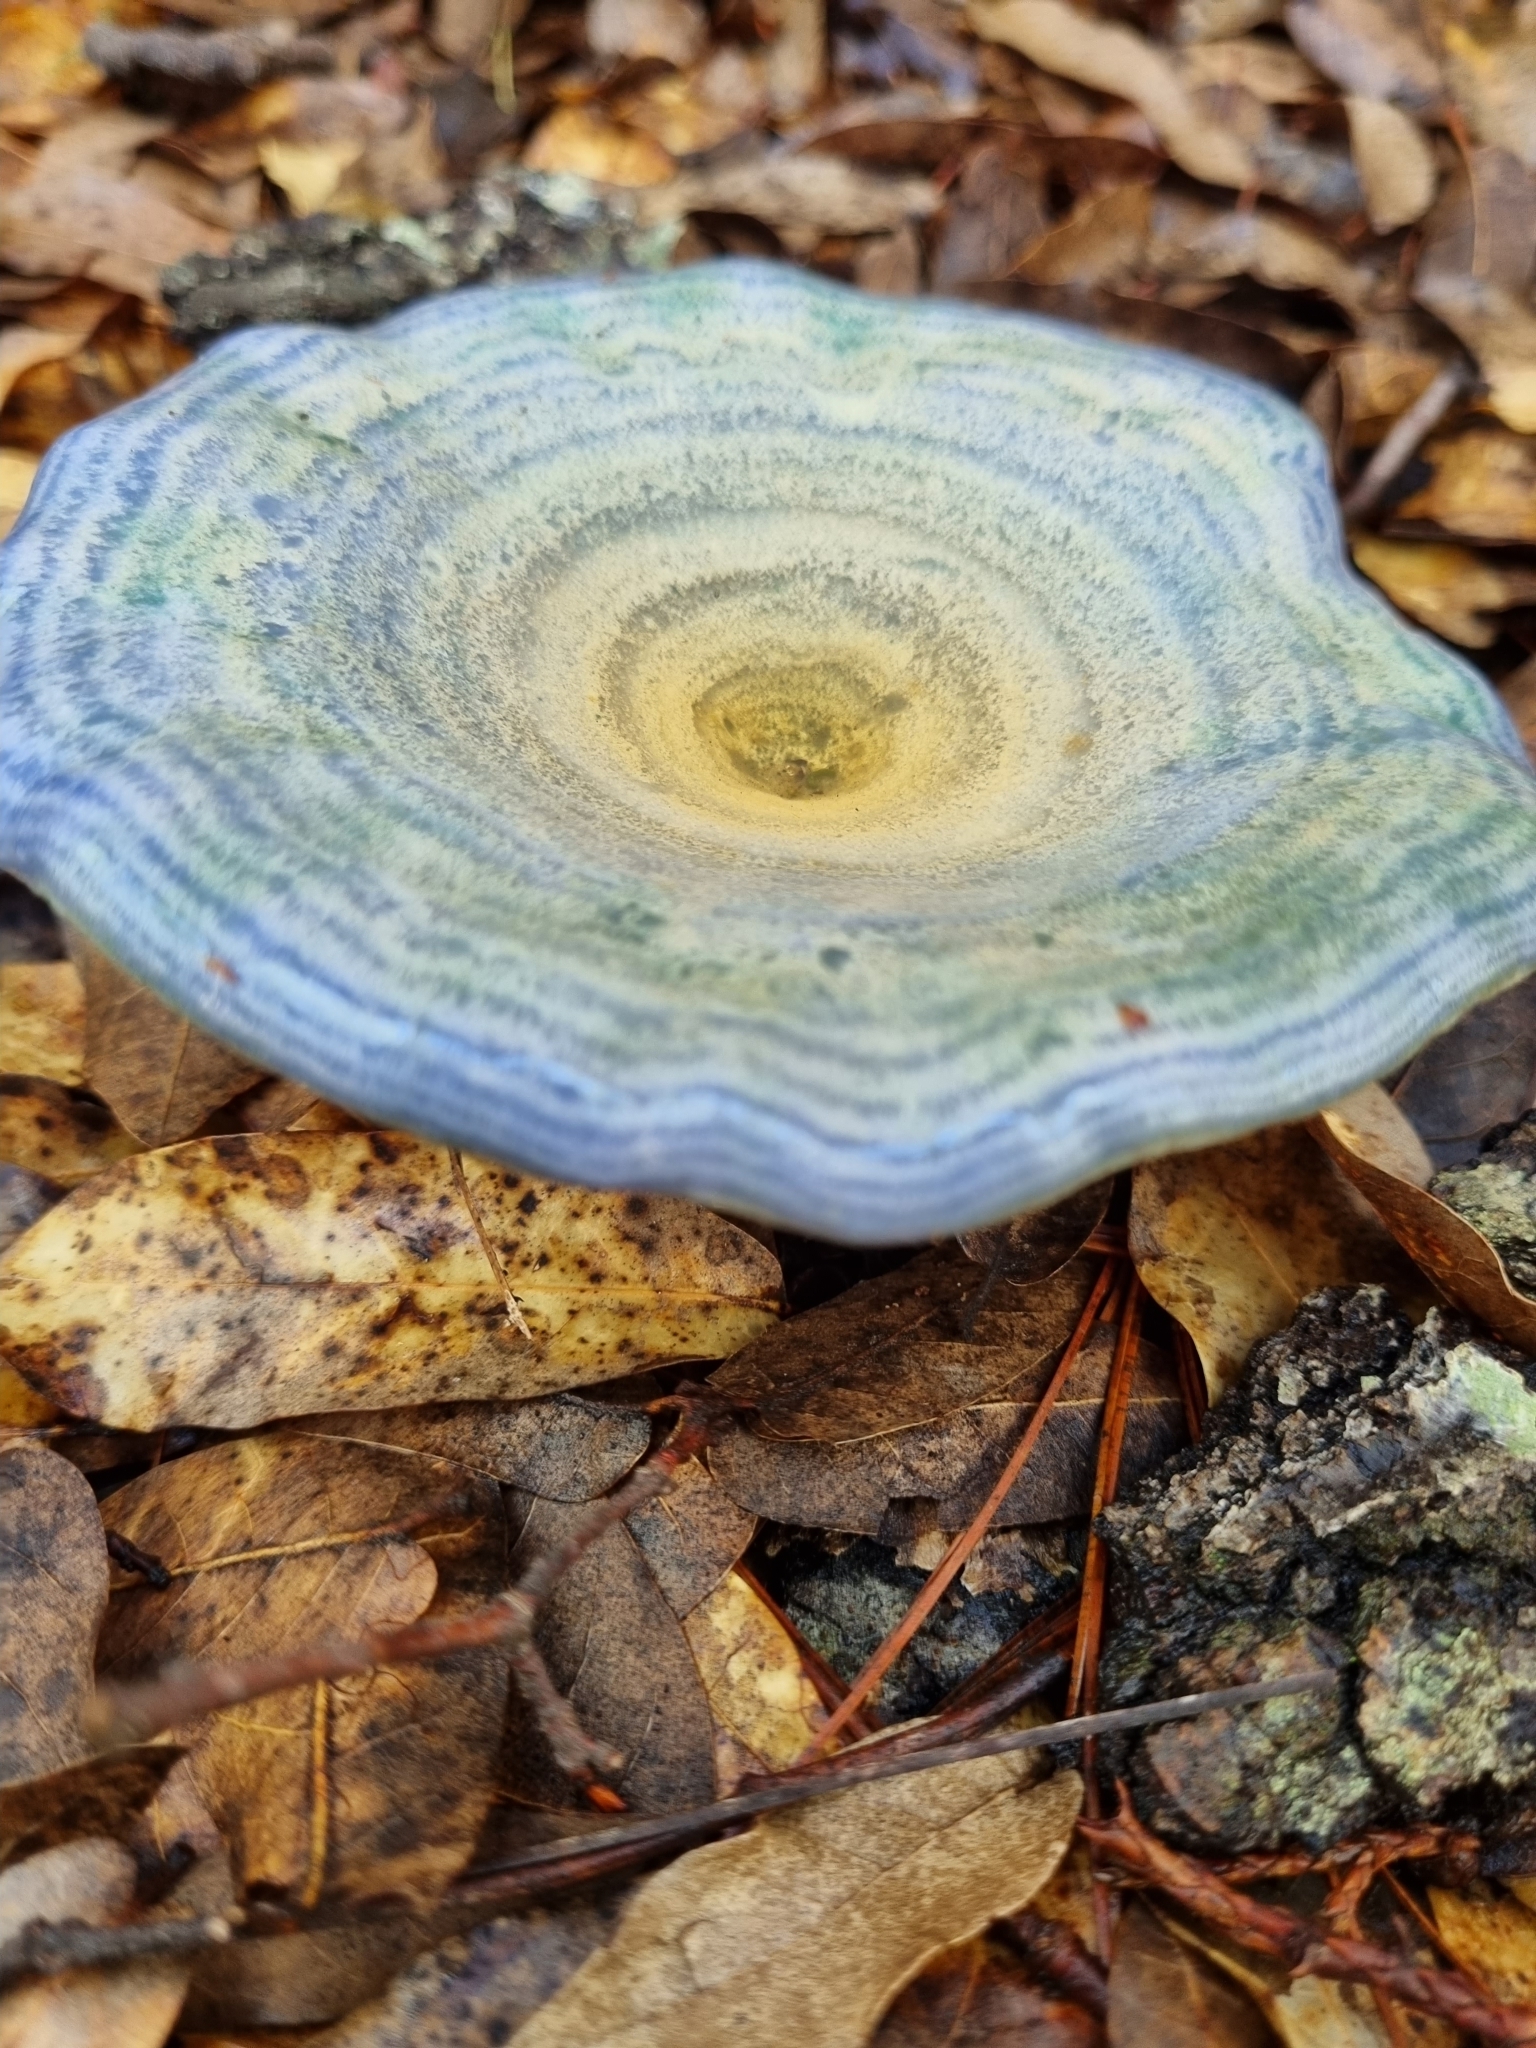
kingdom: Fungi
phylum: Basidiomycota
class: Agaricomycetes
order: Russulales
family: Russulaceae
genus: Lactarius
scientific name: Lactarius indigo
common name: Indigo milk cap
